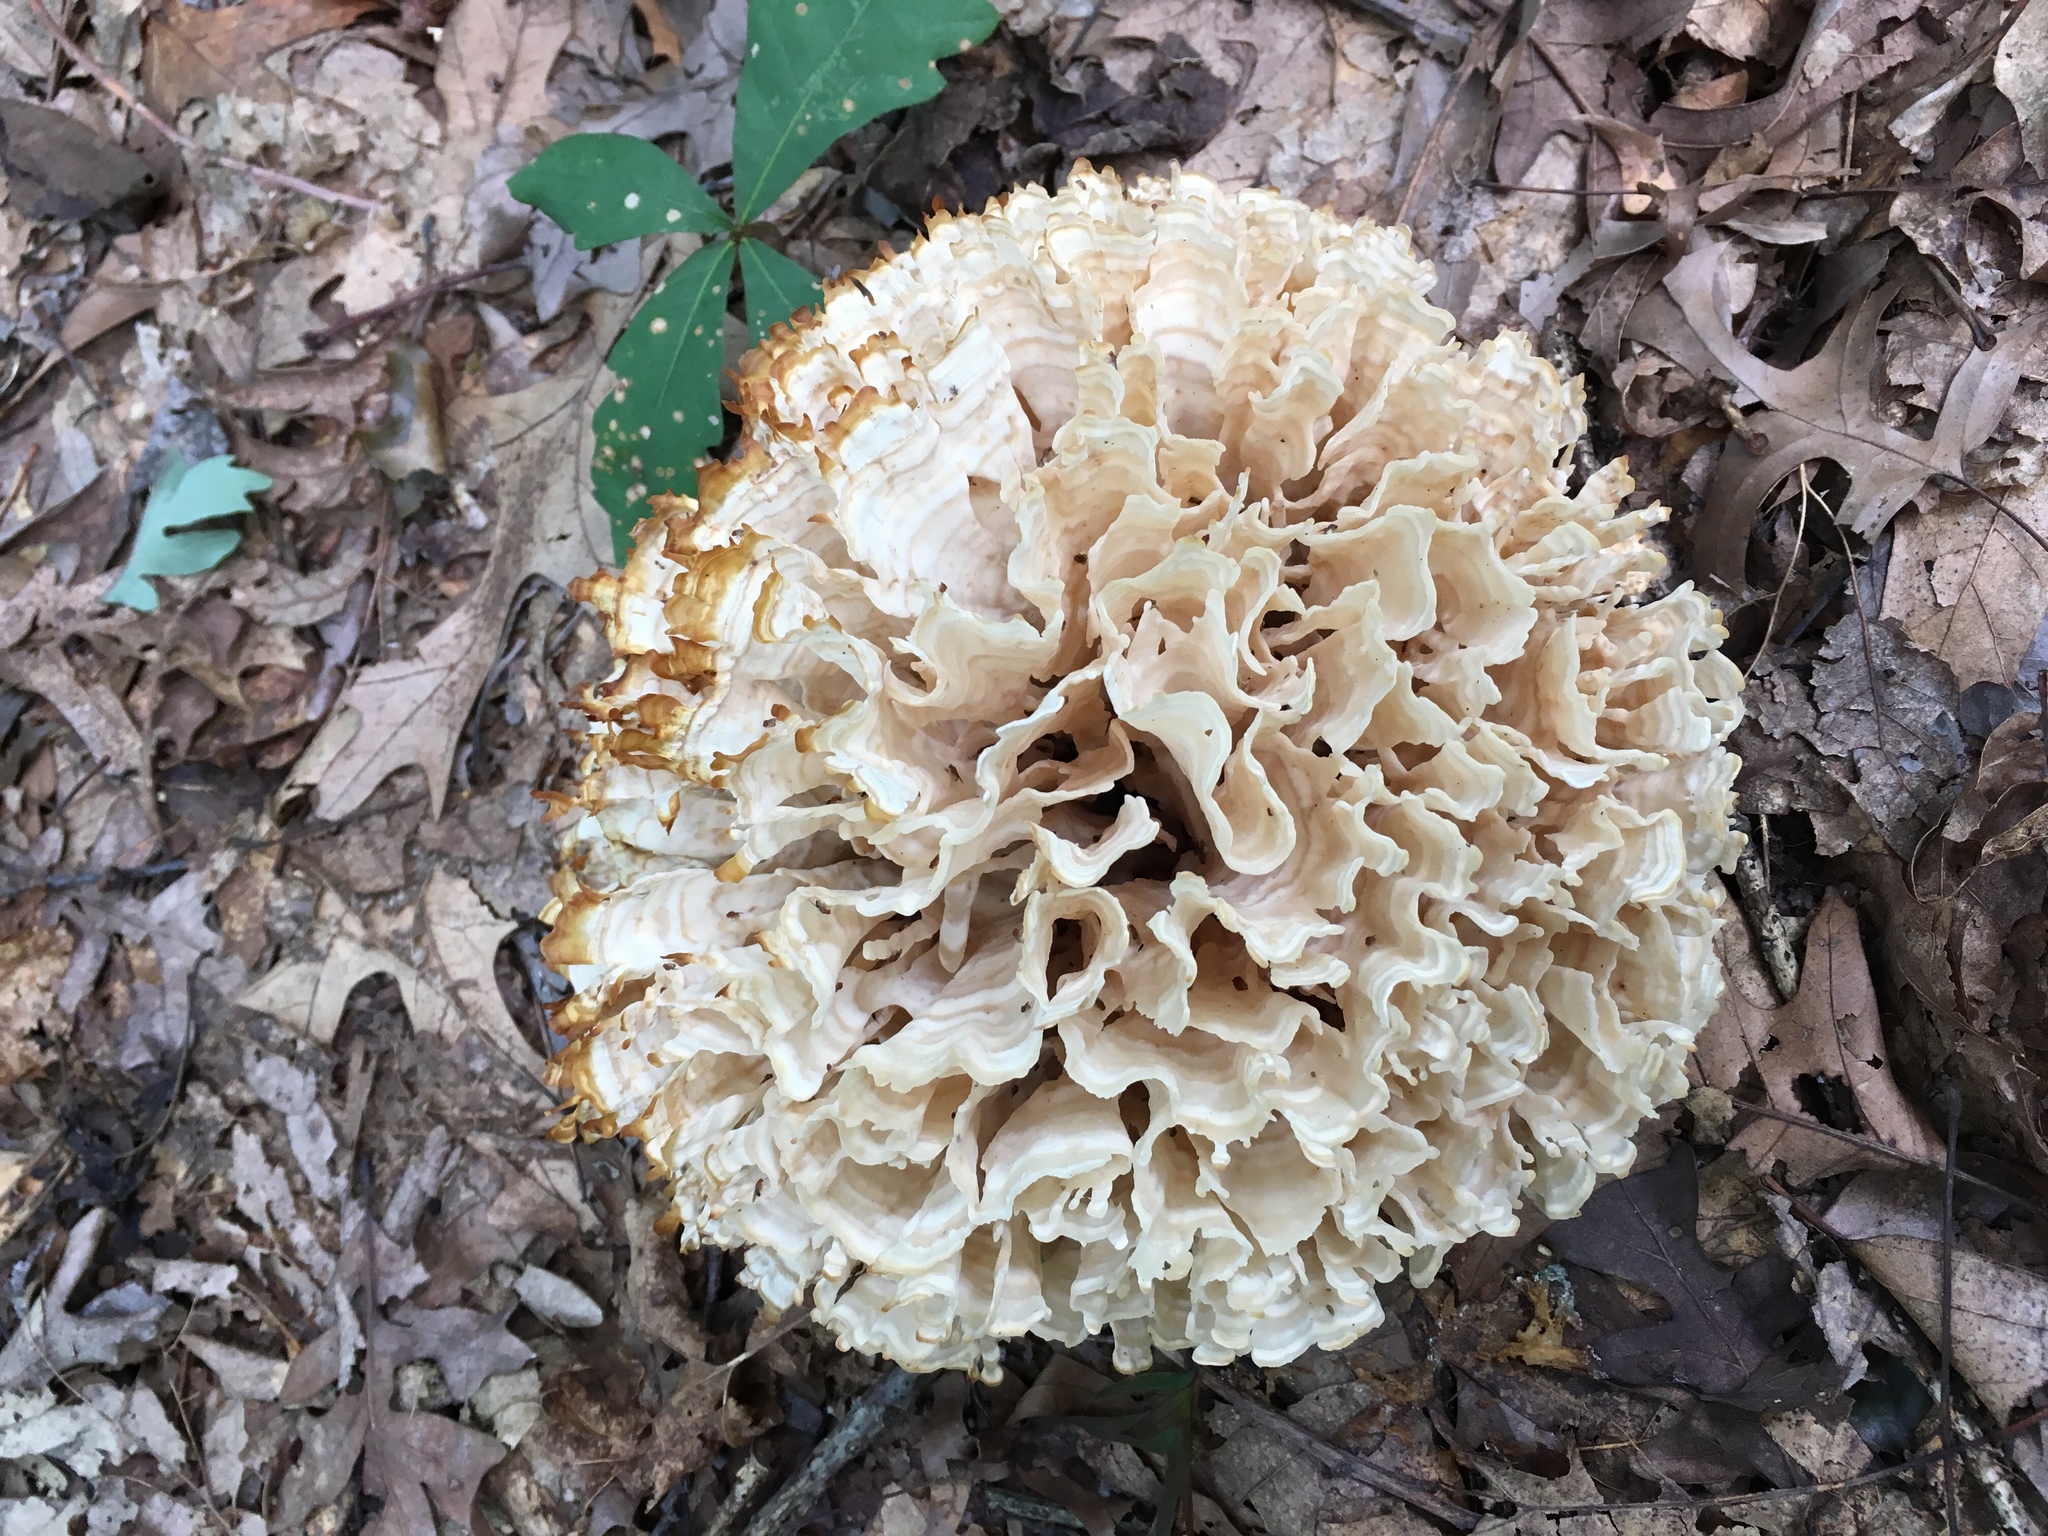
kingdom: Fungi
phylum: Basidiomycota
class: Agaricomycetes
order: Polyporales
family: Sparassidaceae
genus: Sparassis
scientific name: Sparassis spathulata
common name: Eastern cauliflower mushroom
